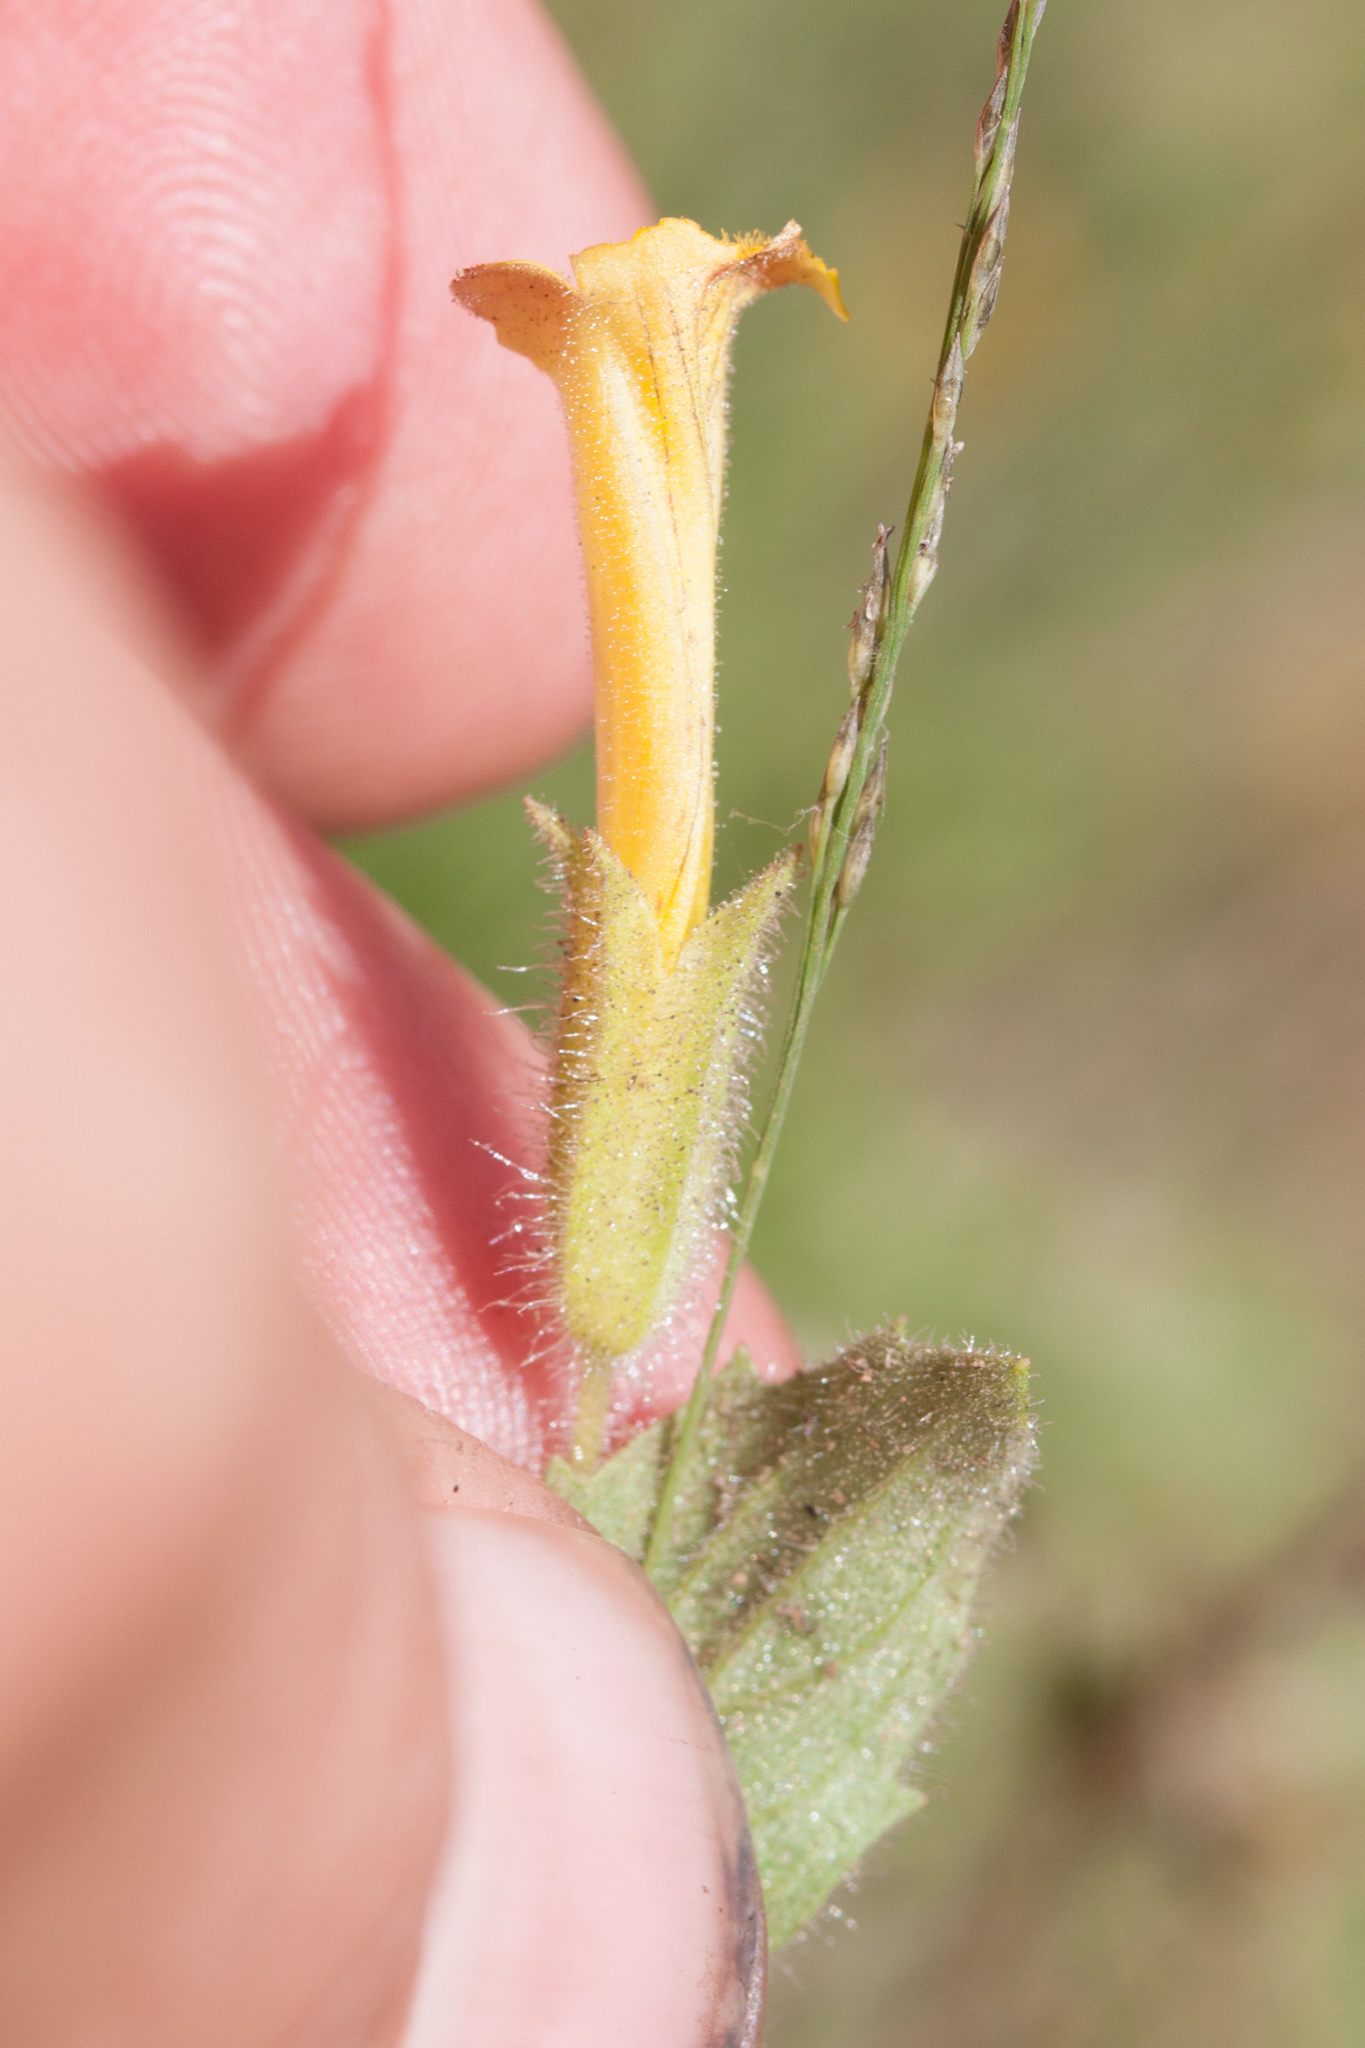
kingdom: Plantae
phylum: Tracheophyta
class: Magnoliopsida
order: Lamiales
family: Phrymaceae
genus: Erythranthe
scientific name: Erythranthe moschata
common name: Muskflower
